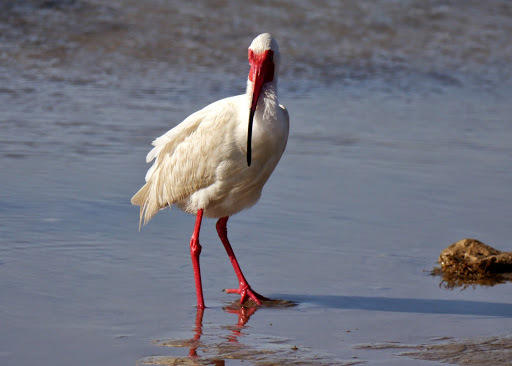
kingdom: Animalia
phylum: Chordata
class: Aves
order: Pelecaniformes
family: Threskiornithidae
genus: Eudocimus
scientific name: Eudocimus albus
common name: White ibis
